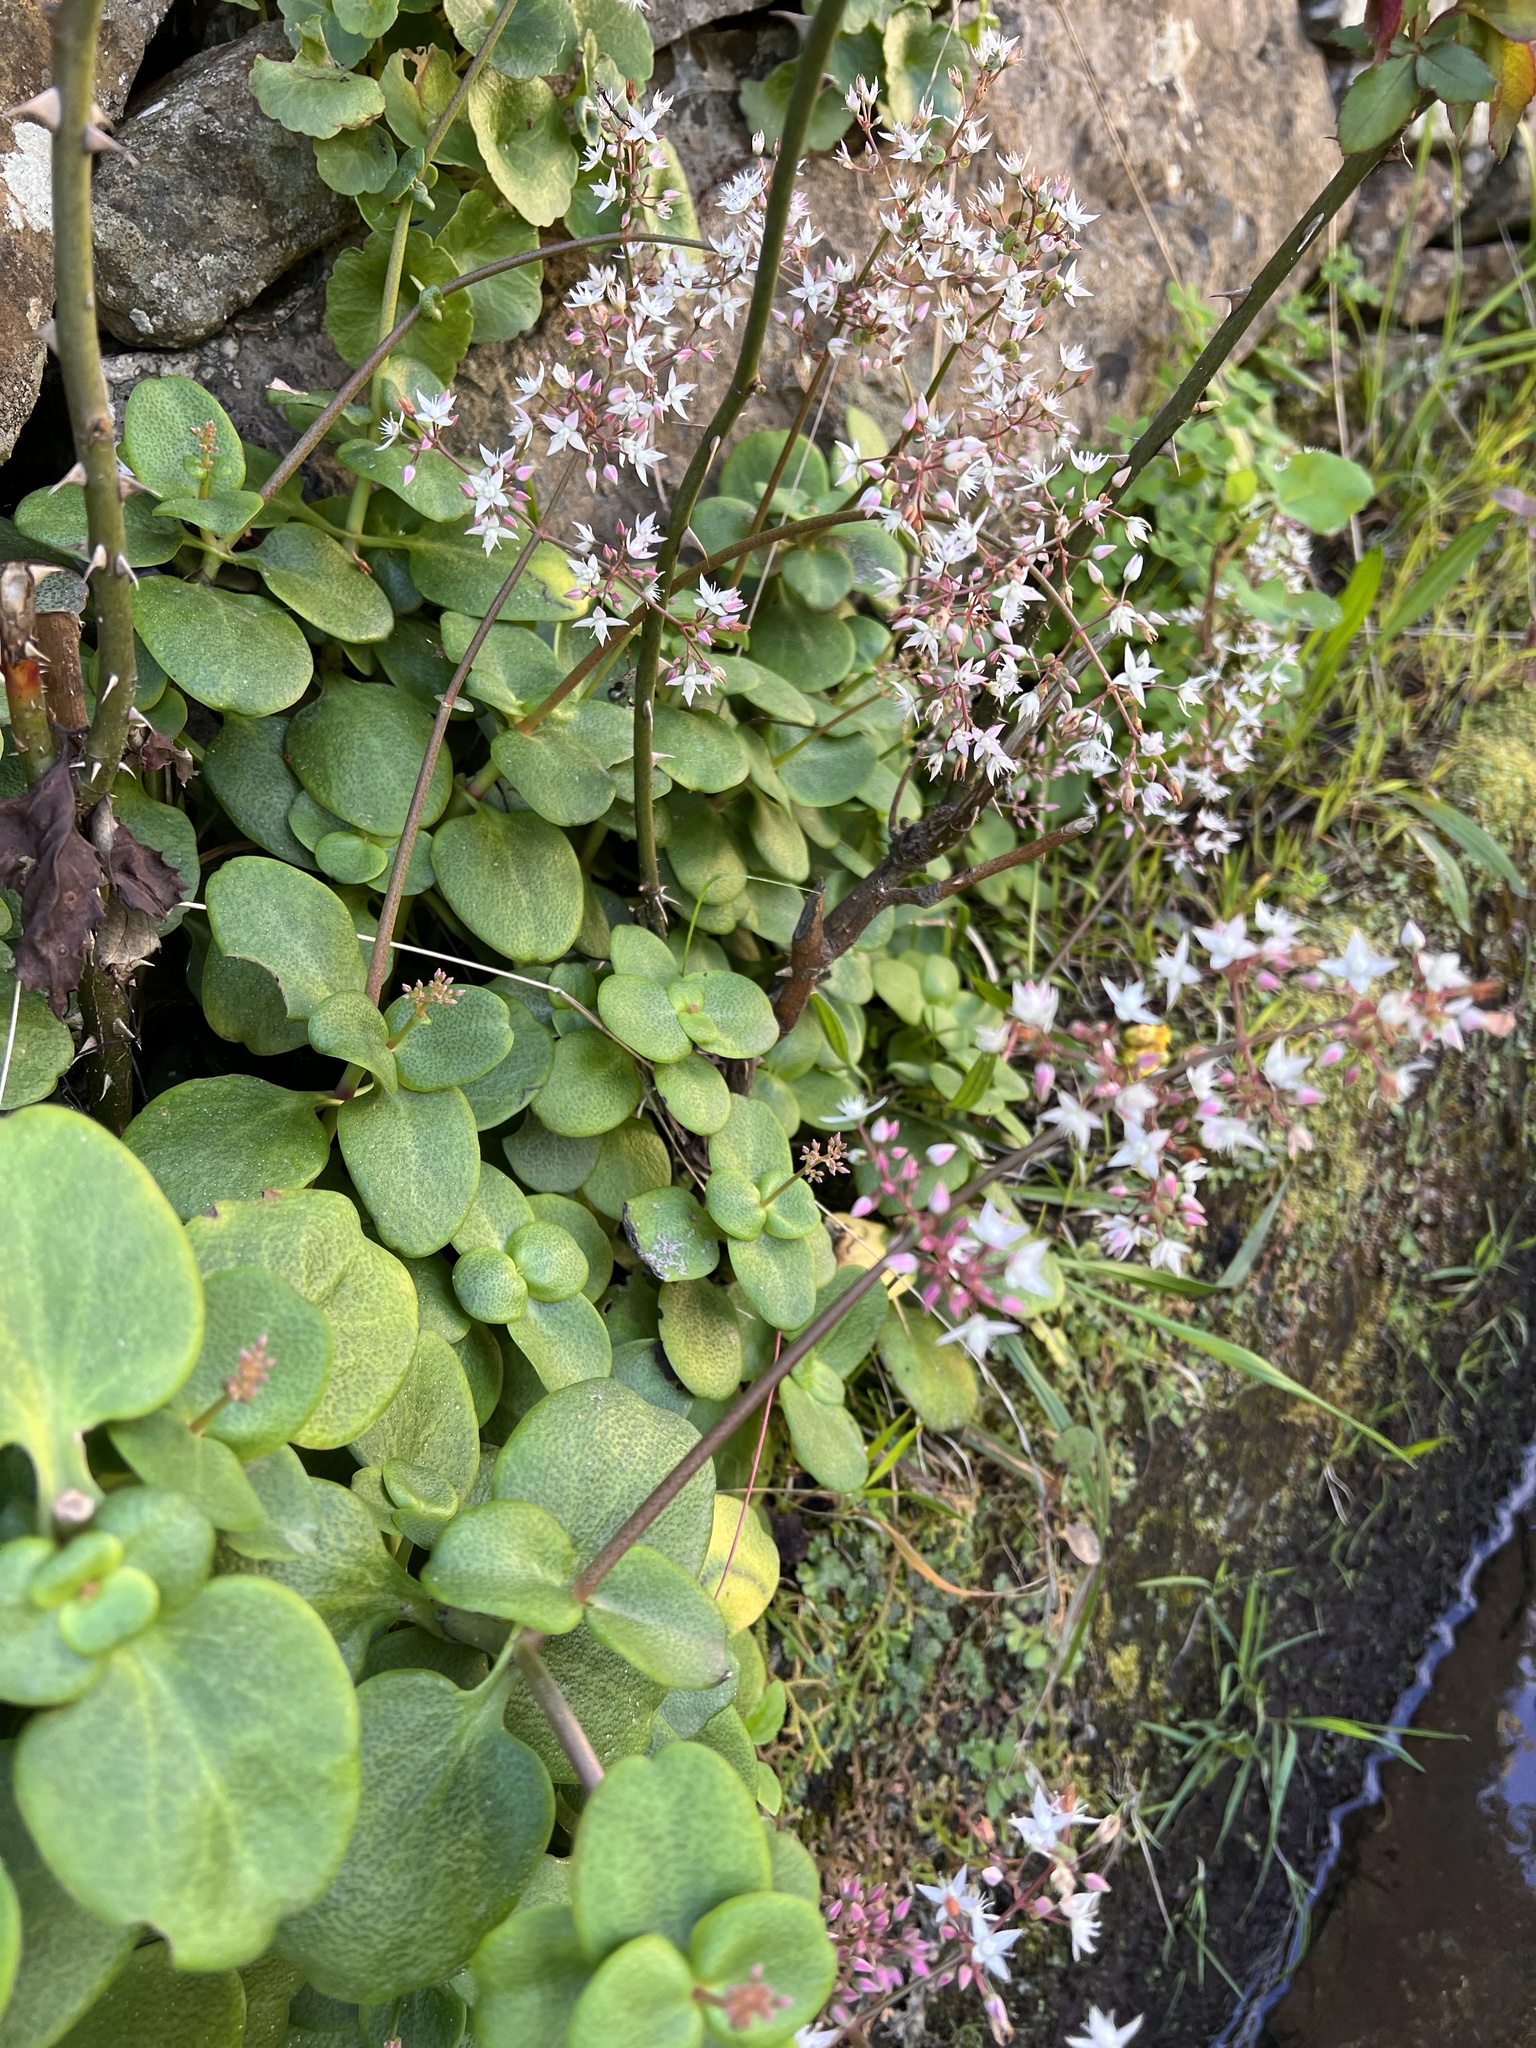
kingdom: Plantae
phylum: Tracheophyta
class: Magnoliopsida
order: Saxifragales
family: Crassulaceae
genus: Umbilicus
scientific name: Umbilicus rupestris
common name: Navelwort
